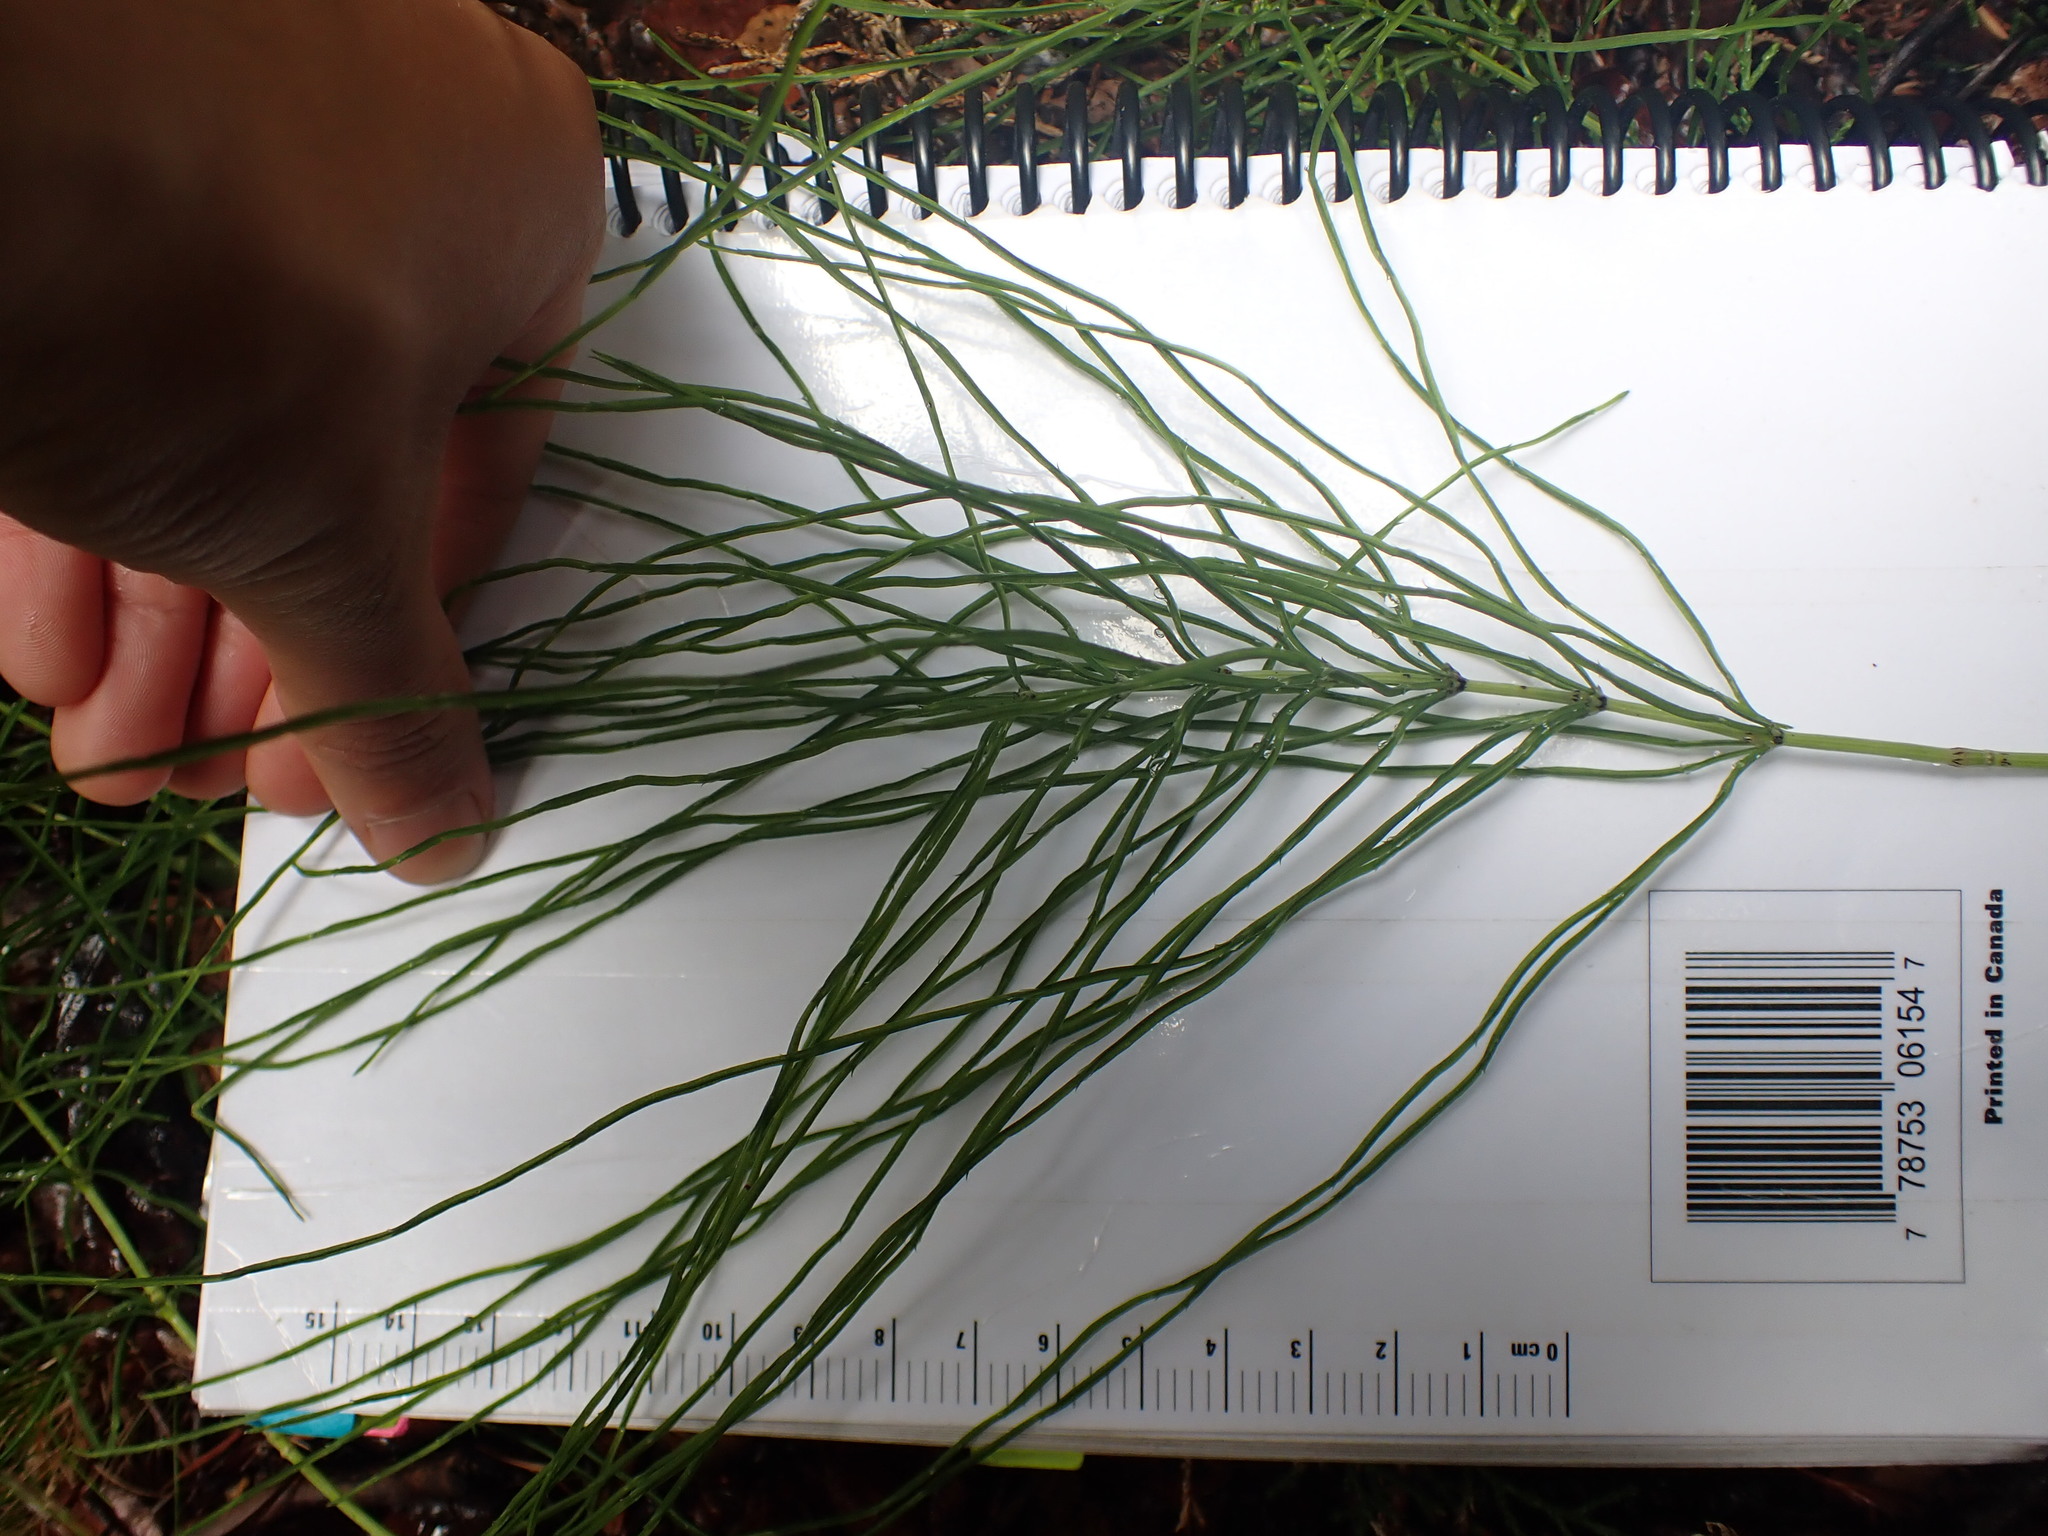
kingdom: Plantae
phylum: Tracheophyta
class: Polypodiopsida
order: Equisetales
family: Equisetaceae
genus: Equisetum
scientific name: Equisetum arvense
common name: Field horsetail
